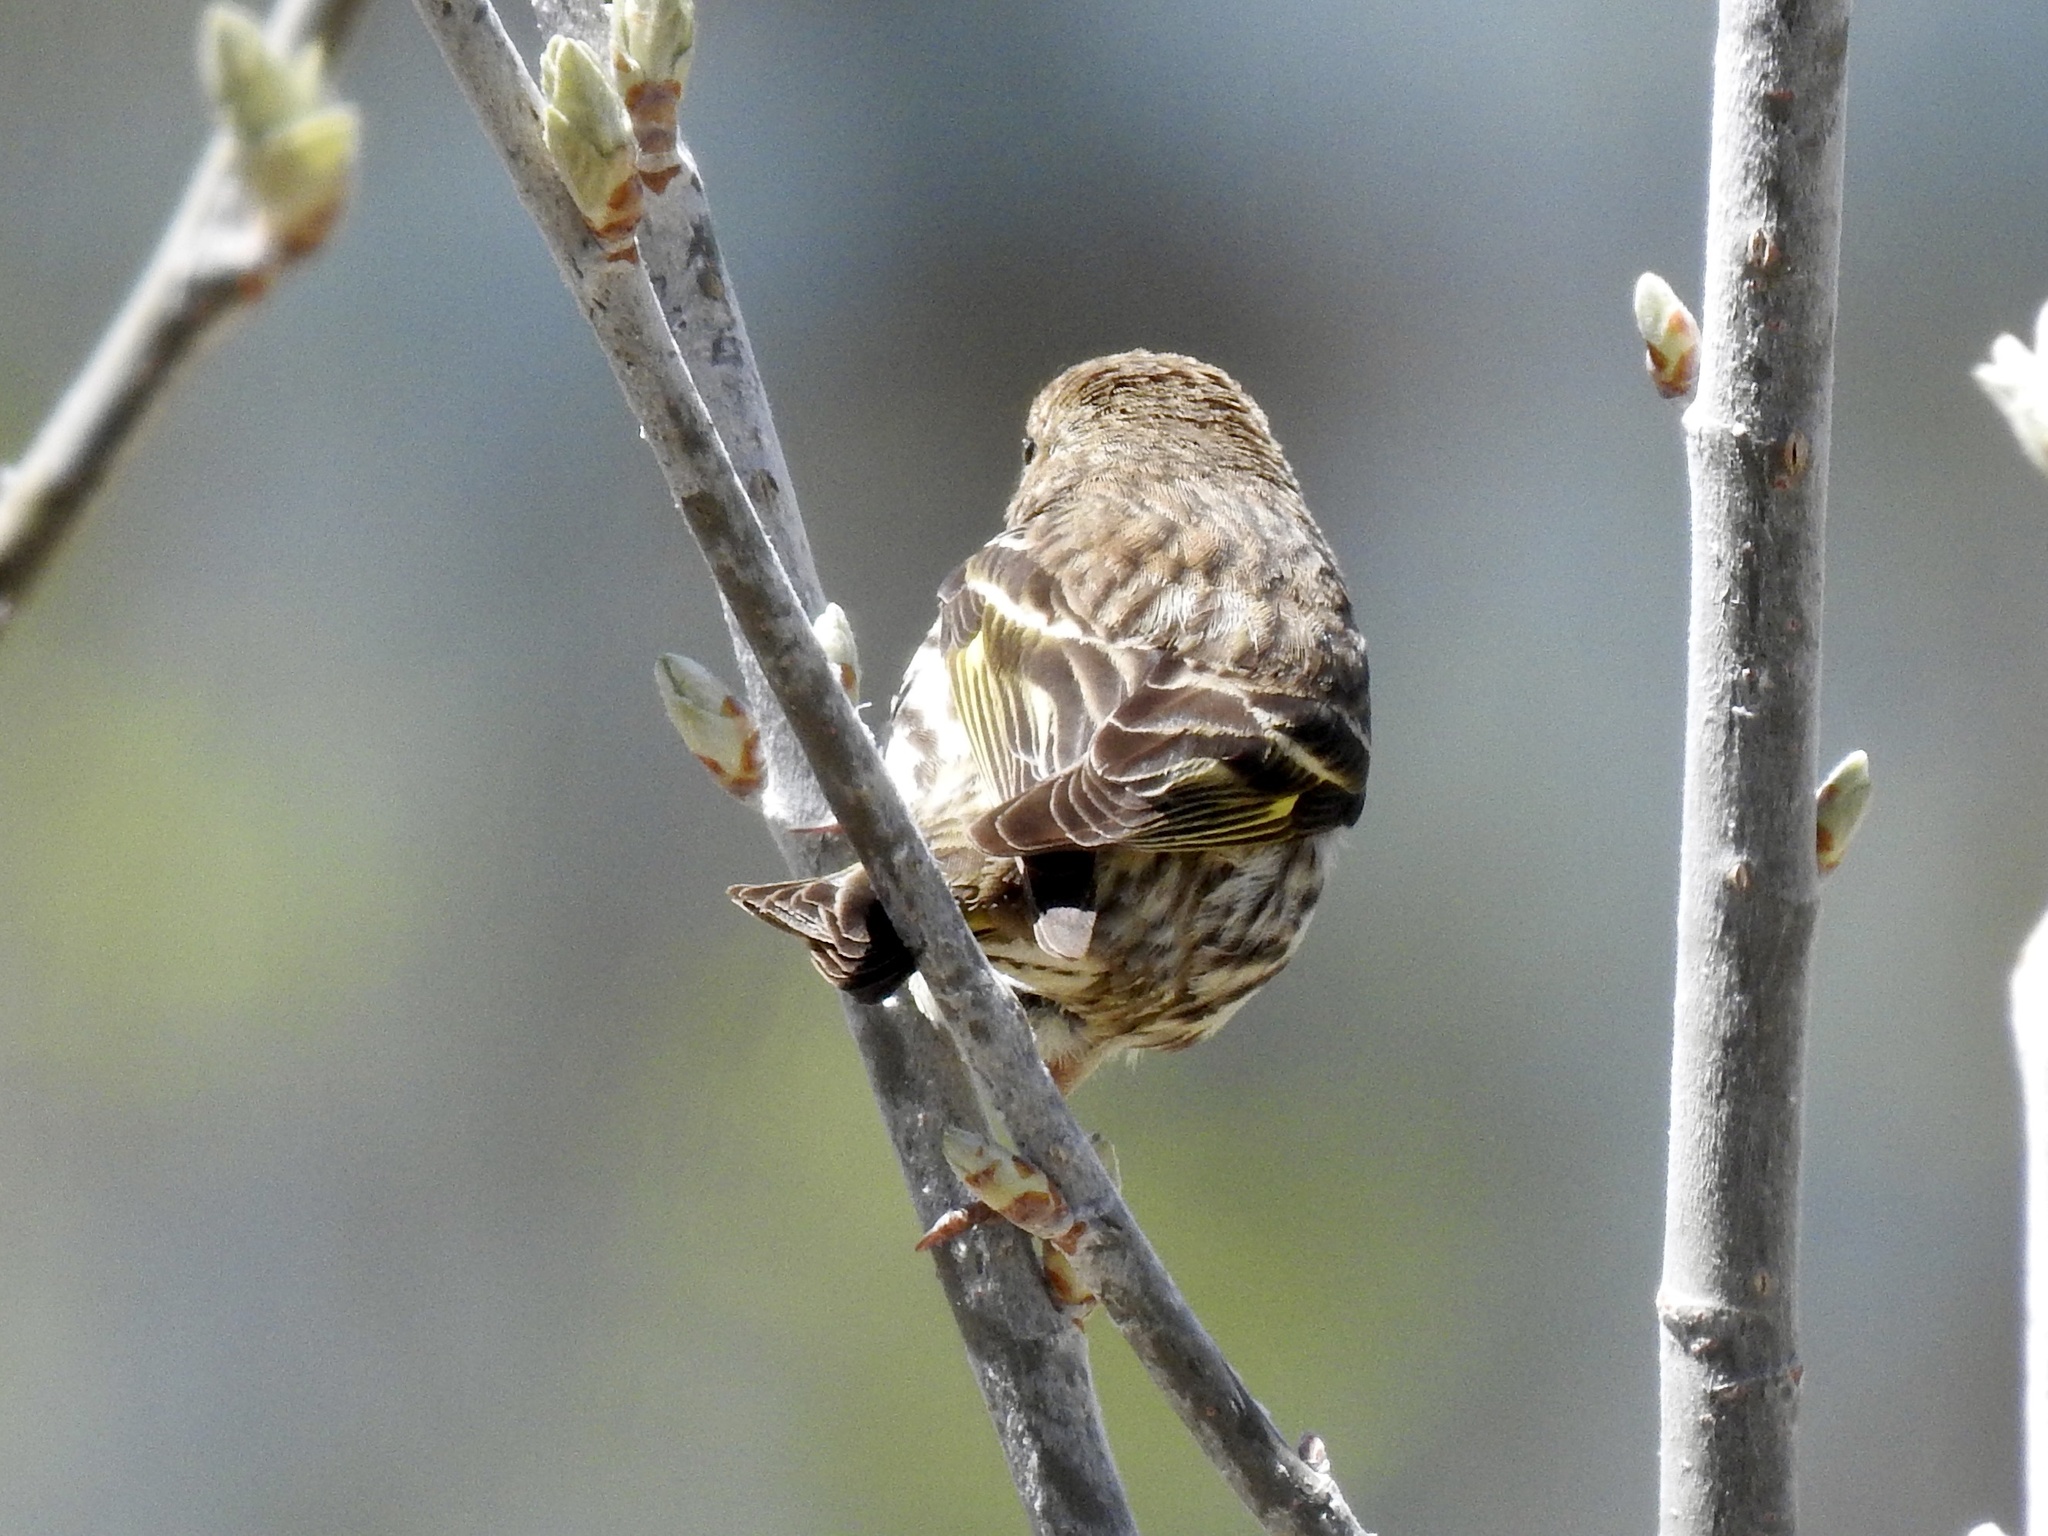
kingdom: Animalia
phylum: Chordata
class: Aves
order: Passeriformes
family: Fringillidae
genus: Spinus
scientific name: Spinus pinus
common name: Pine siskin
